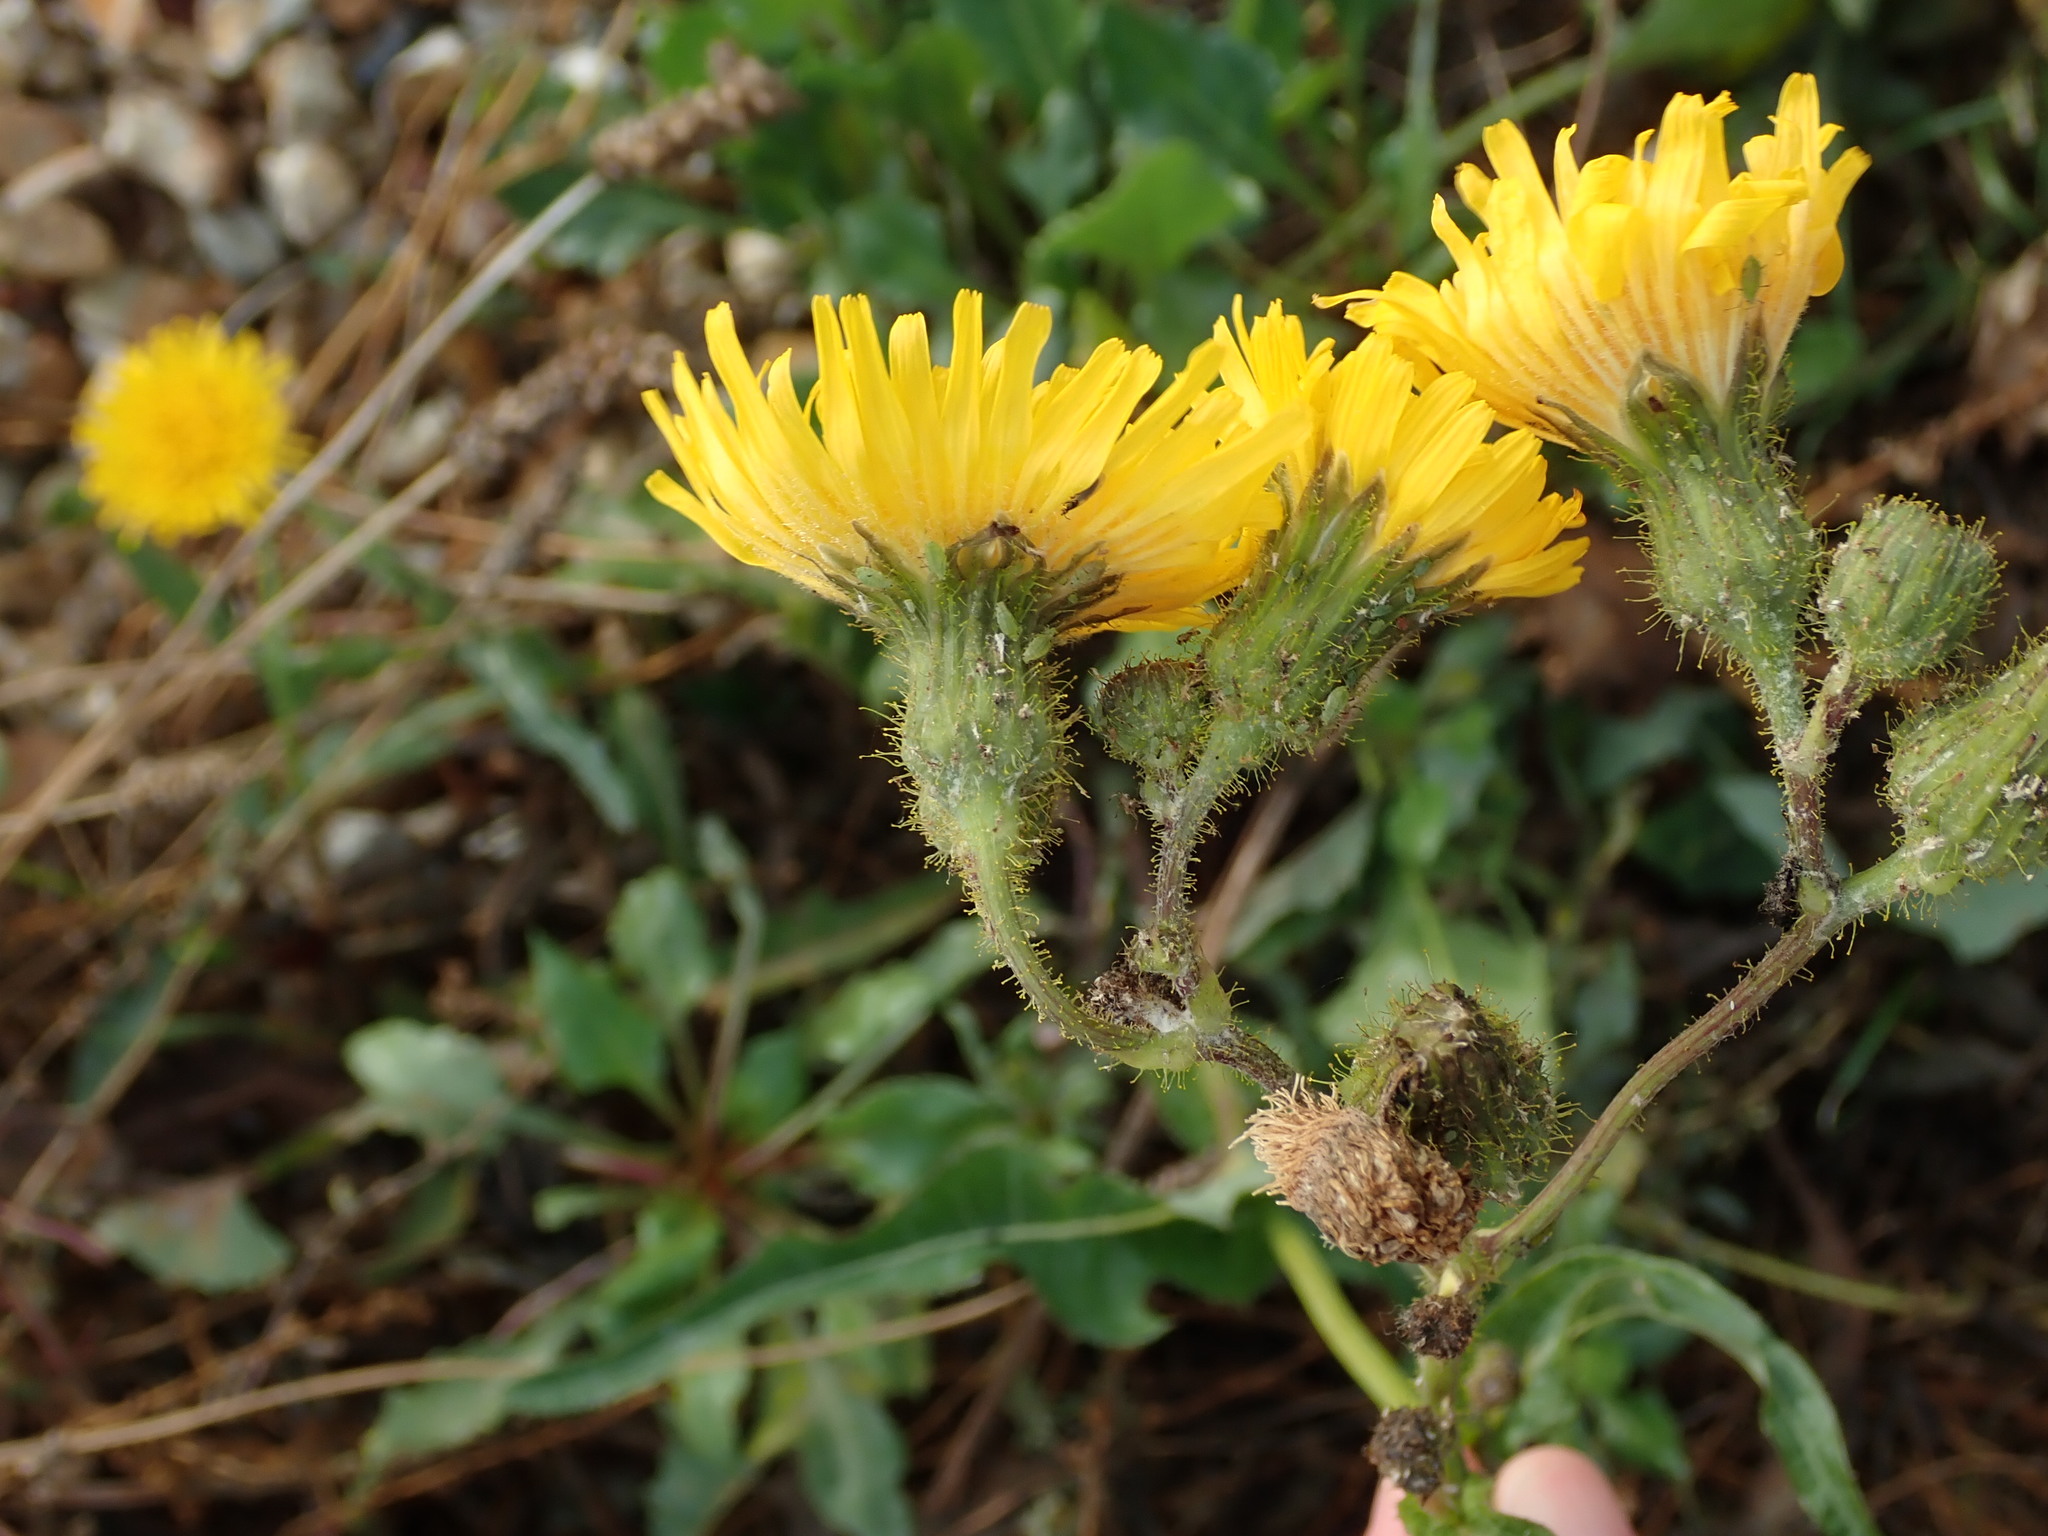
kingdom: Plantae
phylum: Tracheophyta
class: Magnoliopsida
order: Asterales
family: Asteraceae
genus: Sonchus
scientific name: Sonchus arvensis
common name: Perennial sow-thistle
